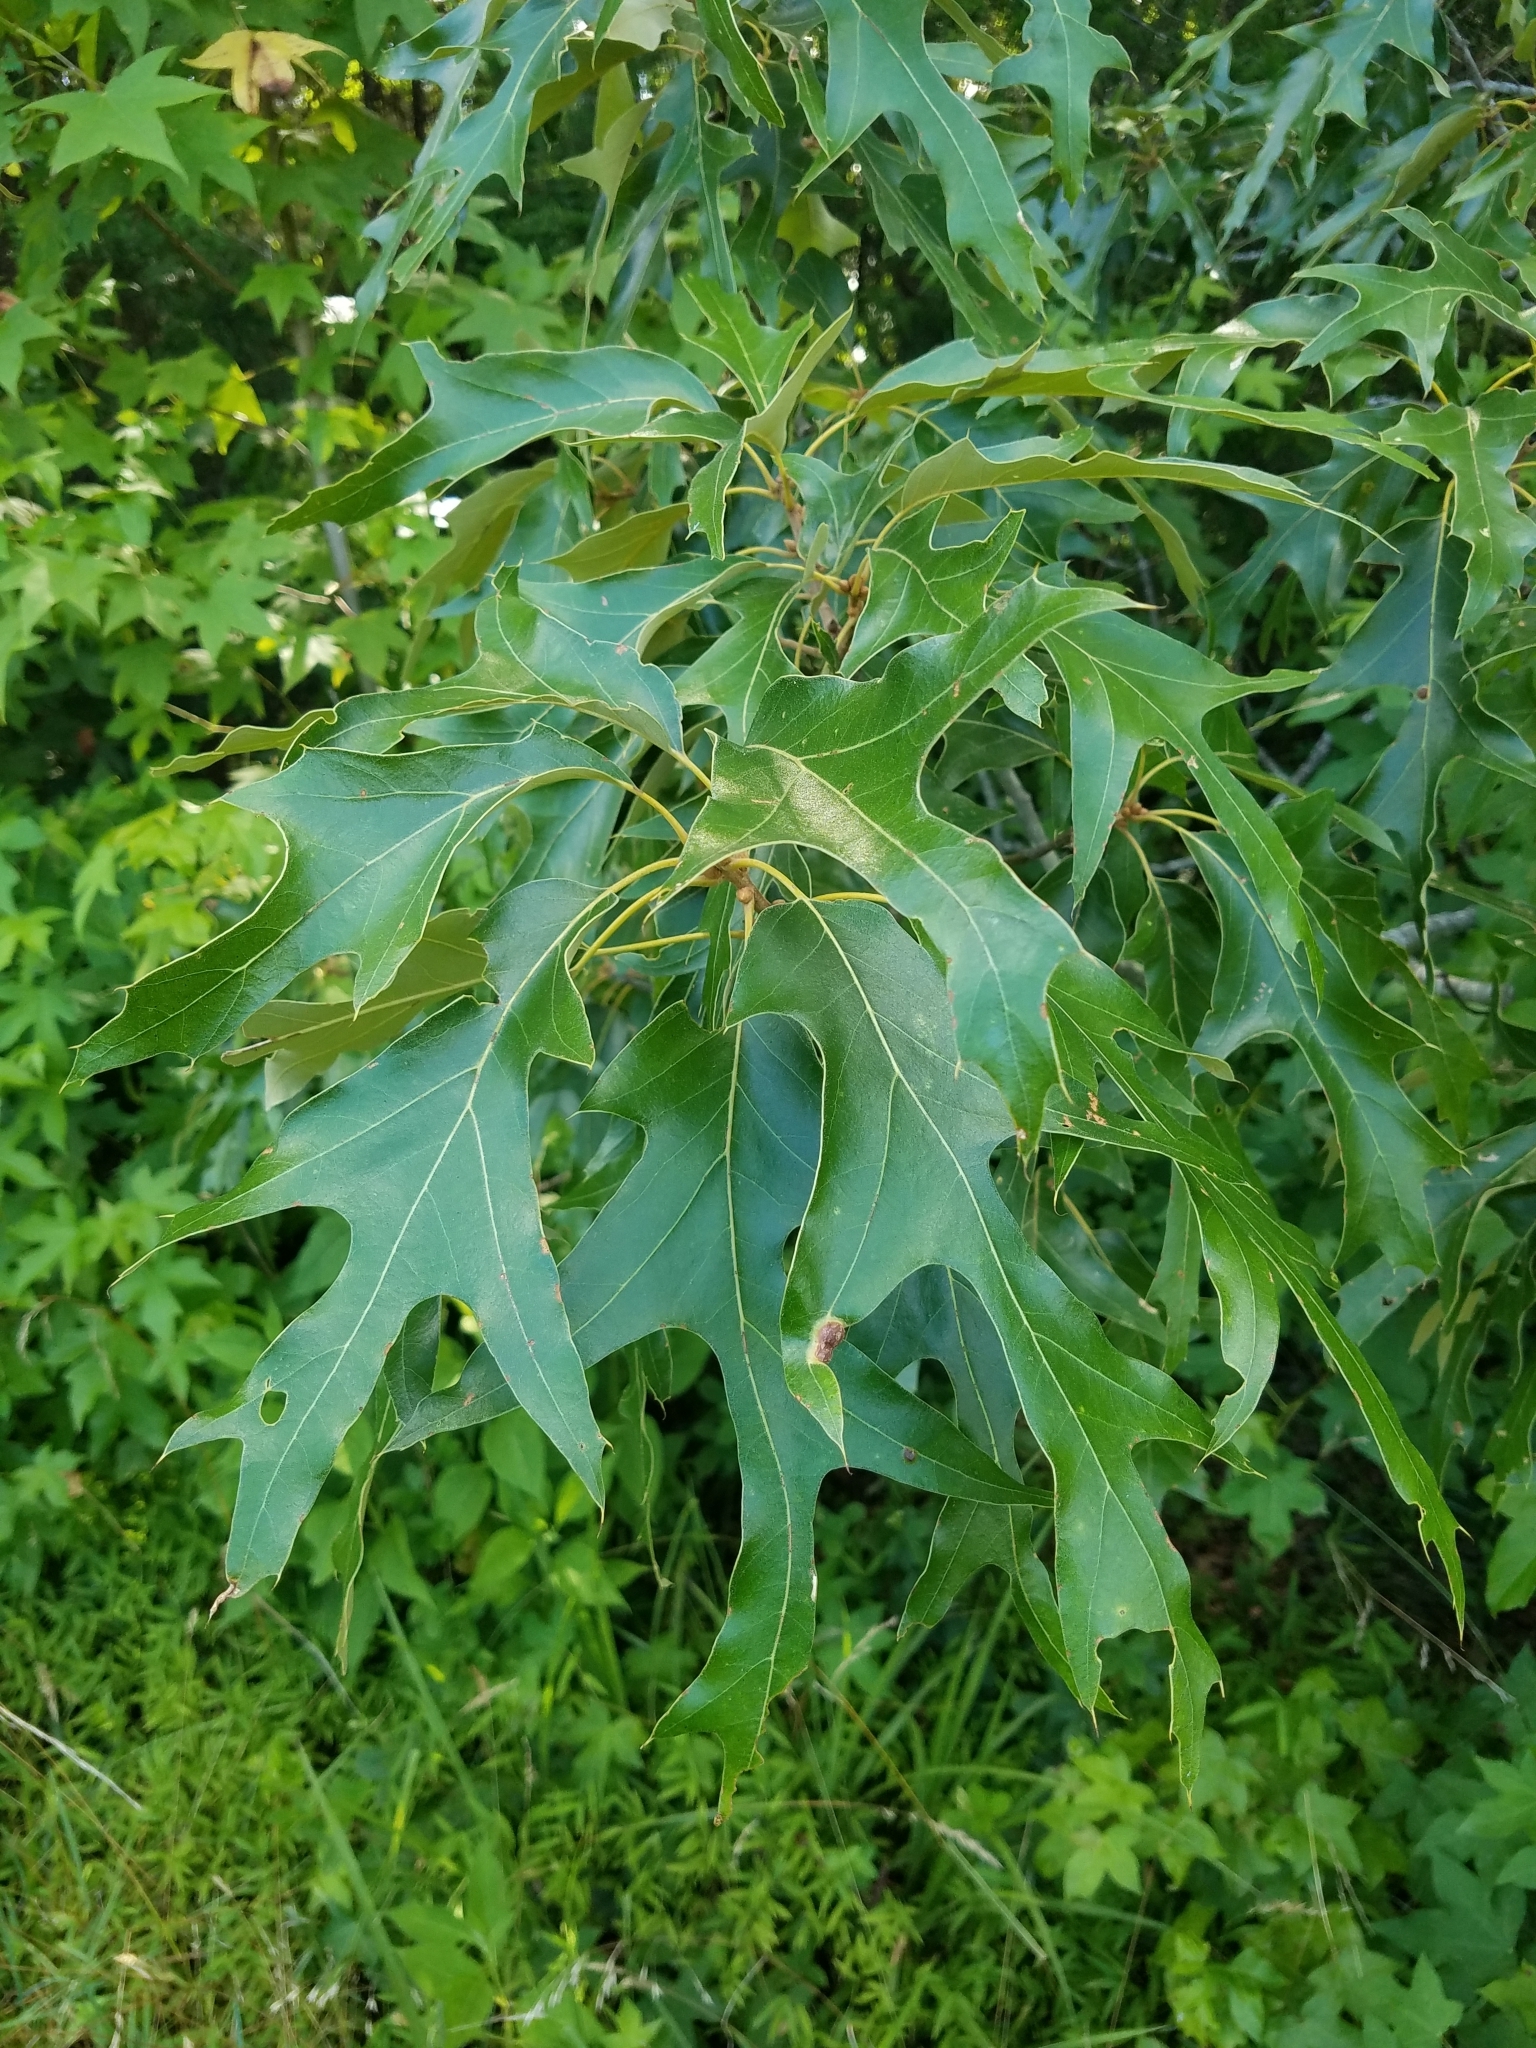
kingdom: Plantae
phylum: Tracheophyta
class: Magnoliopsida
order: Fagales
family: Fagaceae
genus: Quercus
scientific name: Quercus falcata
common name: Southern red oak
